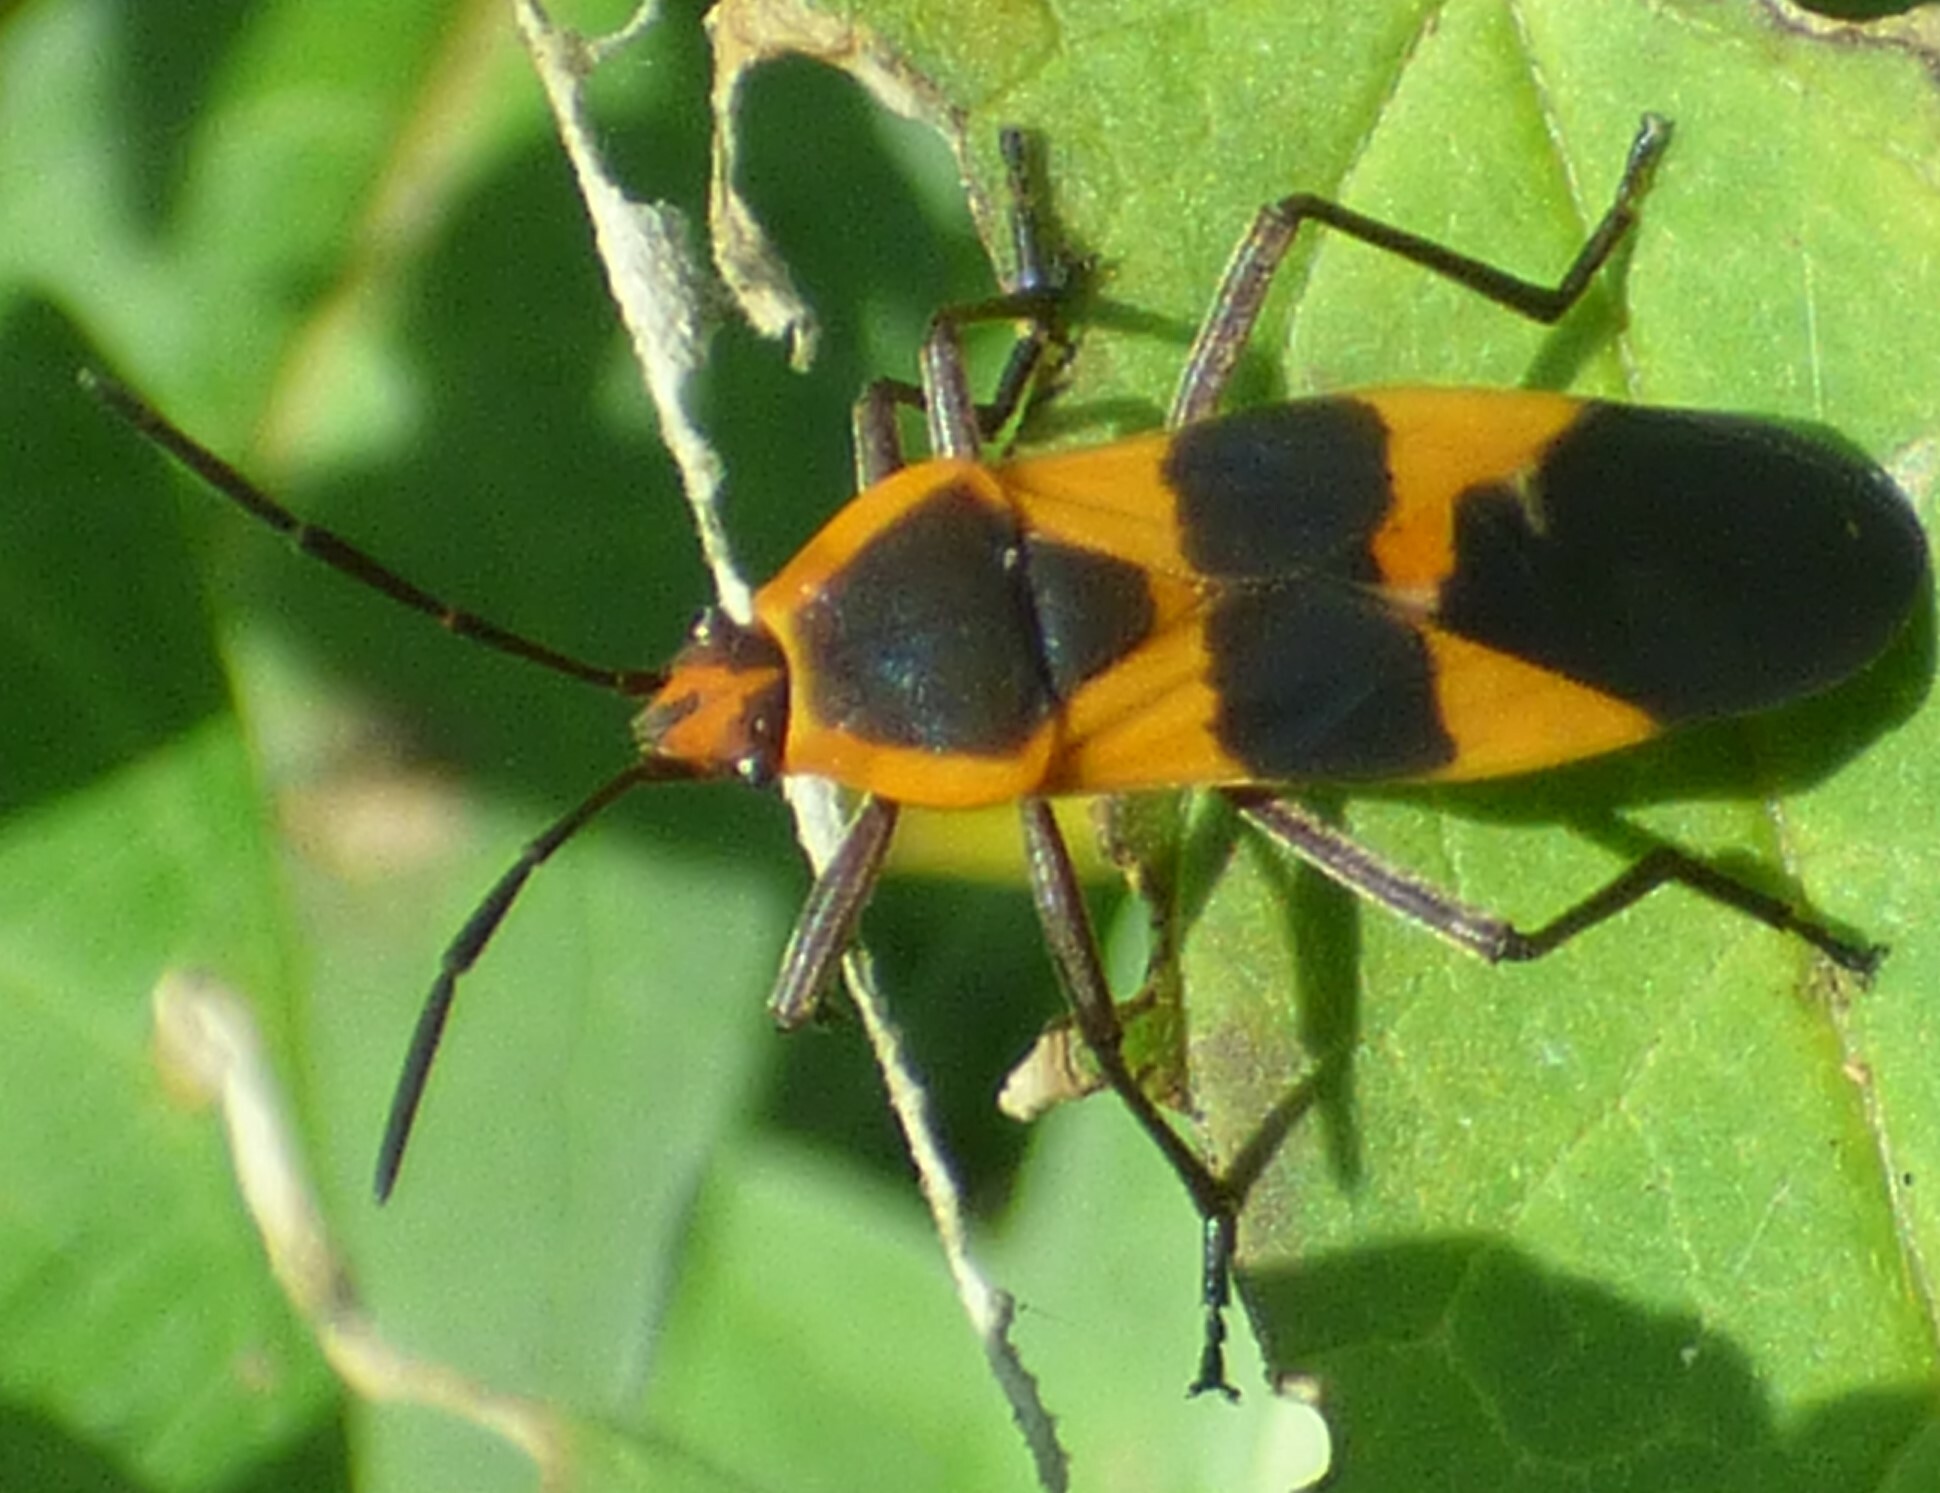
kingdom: Animalia
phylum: Arthropoda
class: Insecta
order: Hemiptera
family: Lygaeidae
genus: Oncopeltus
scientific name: Oncopeltus fasciatus
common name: Large milkweed bug
